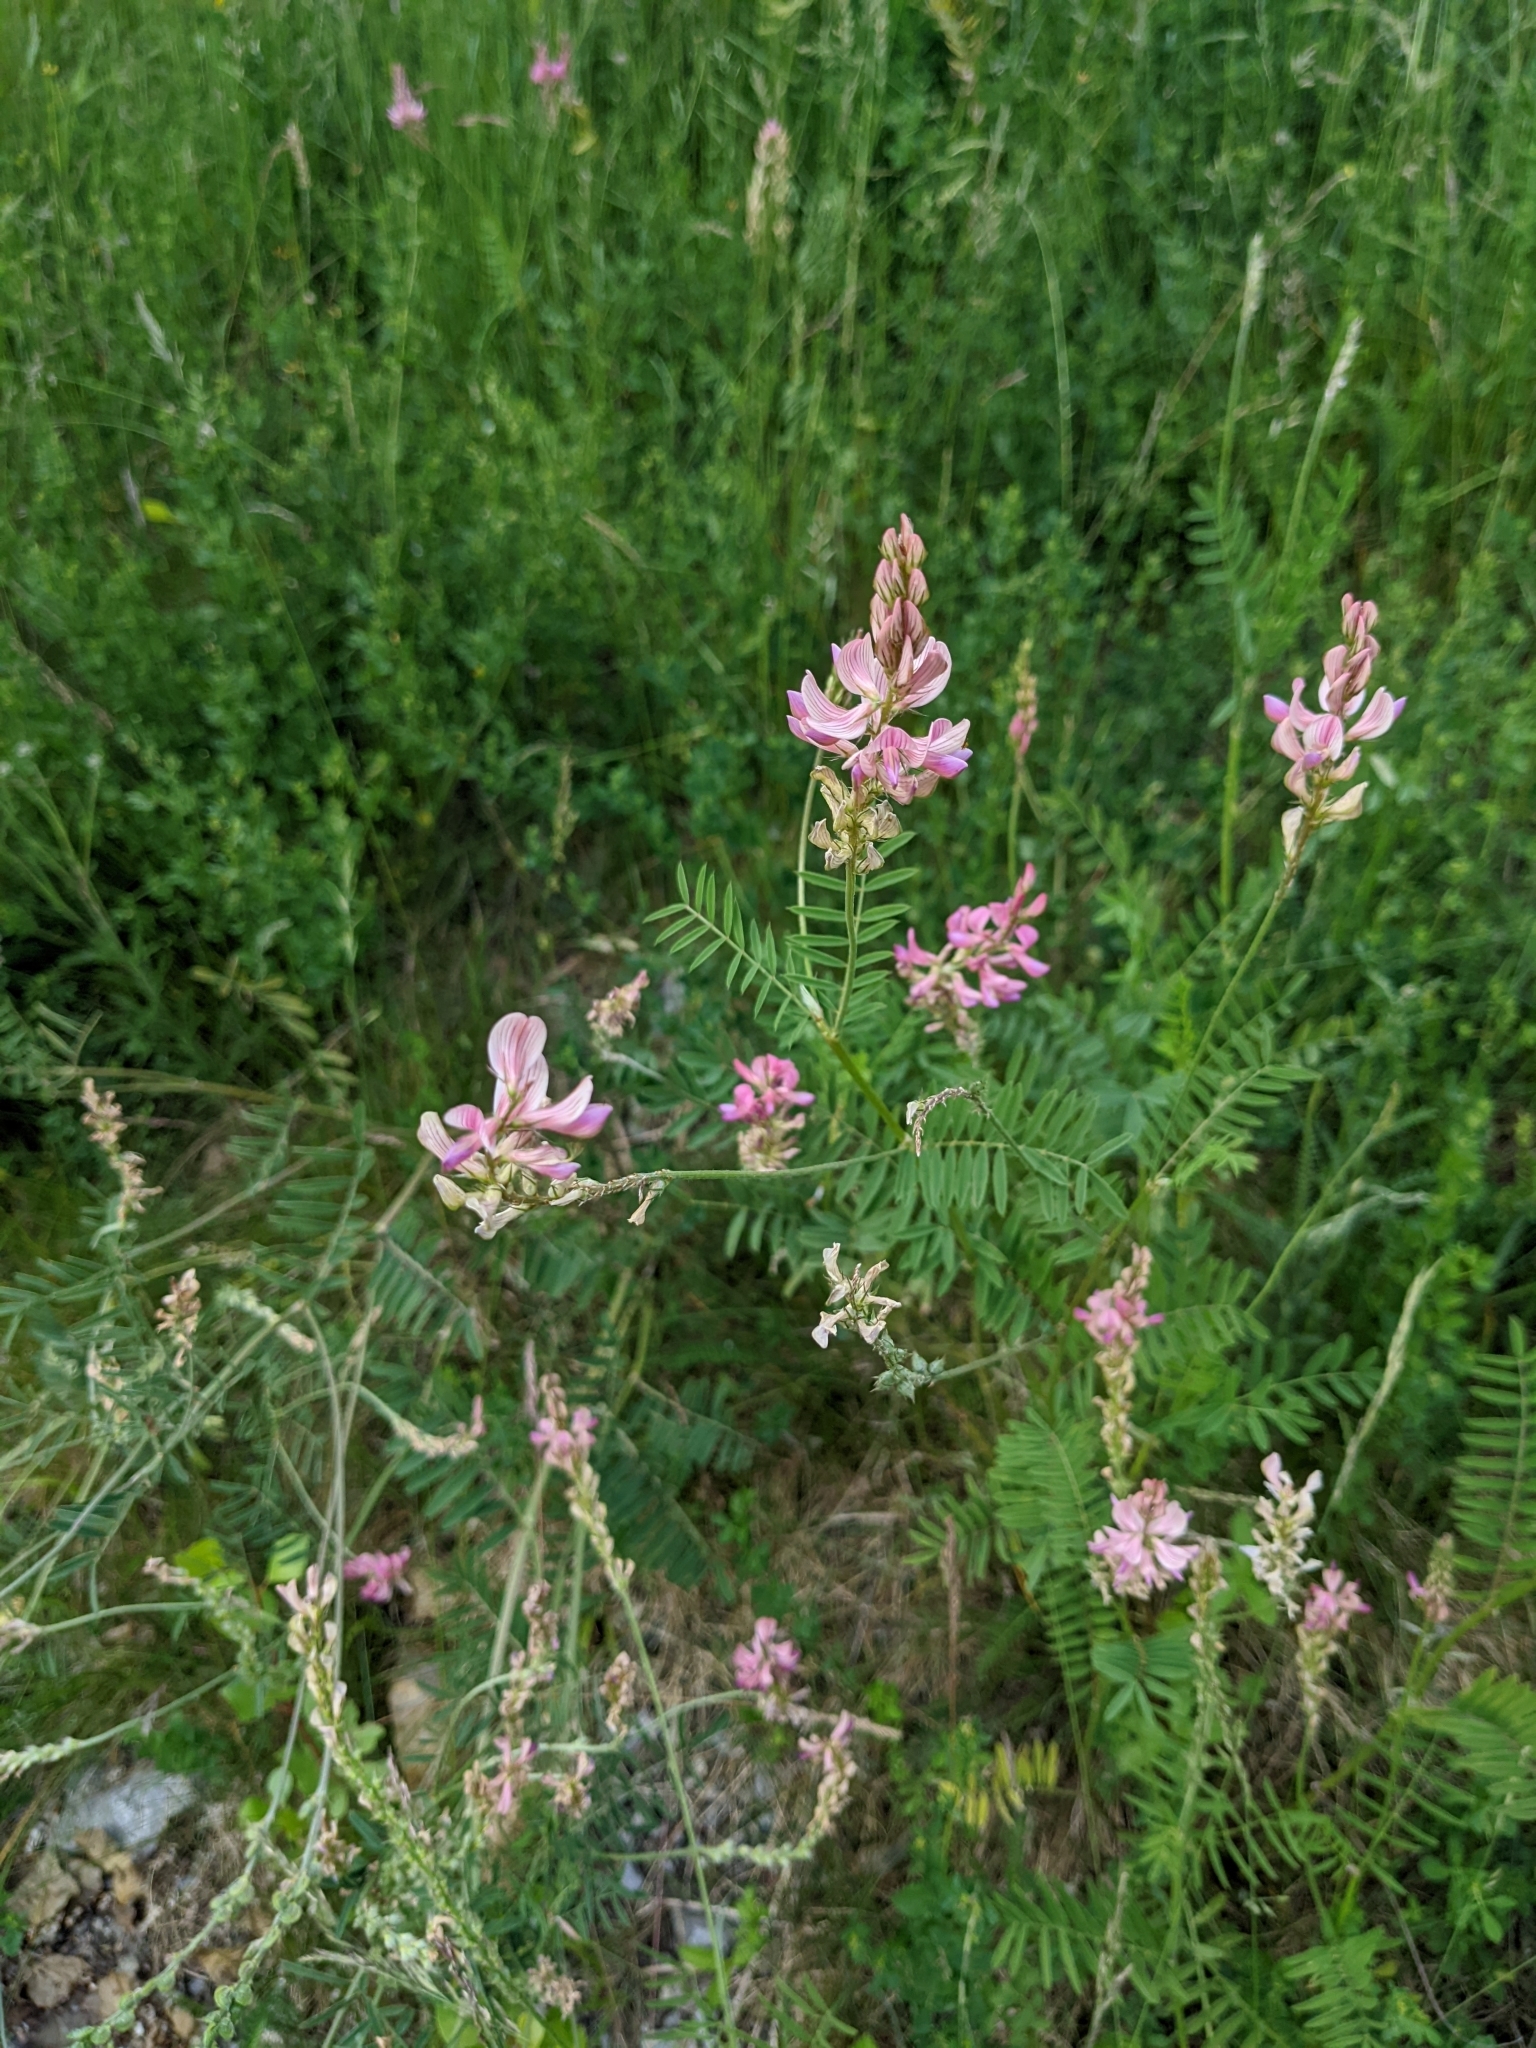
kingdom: Plantae
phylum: Tracheophyta
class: Magnoliopsida
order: Fabales
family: Fabaceae
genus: Onobrychis
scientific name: Onobrychis viciifolia
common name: Sainfoin
